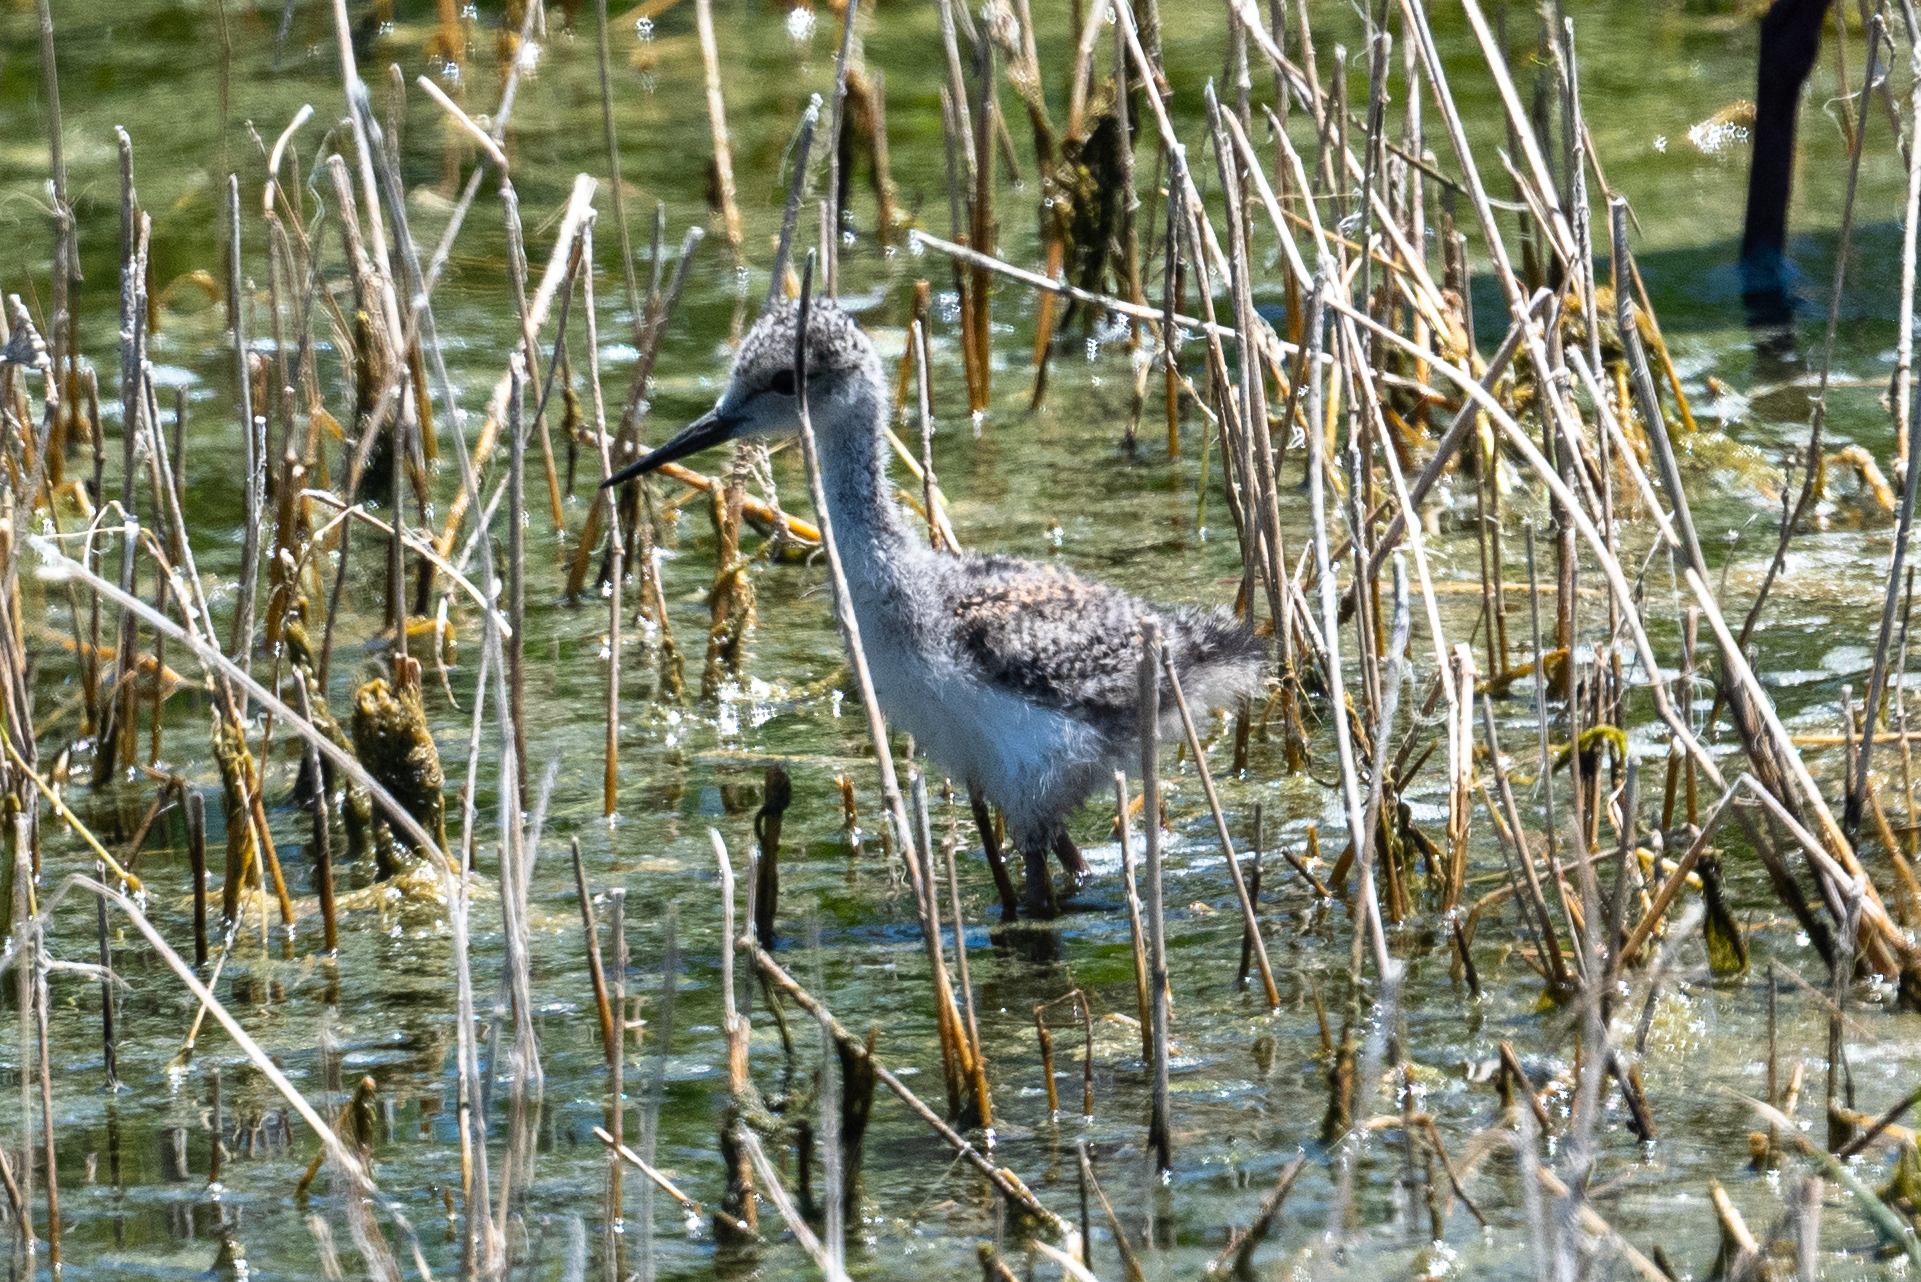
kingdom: Animalia
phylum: Chordata
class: Aves
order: Charadriiformes
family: Recurvirostridae
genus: Himantopus
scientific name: Himantopus mexicanus
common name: Black-necked stilt
